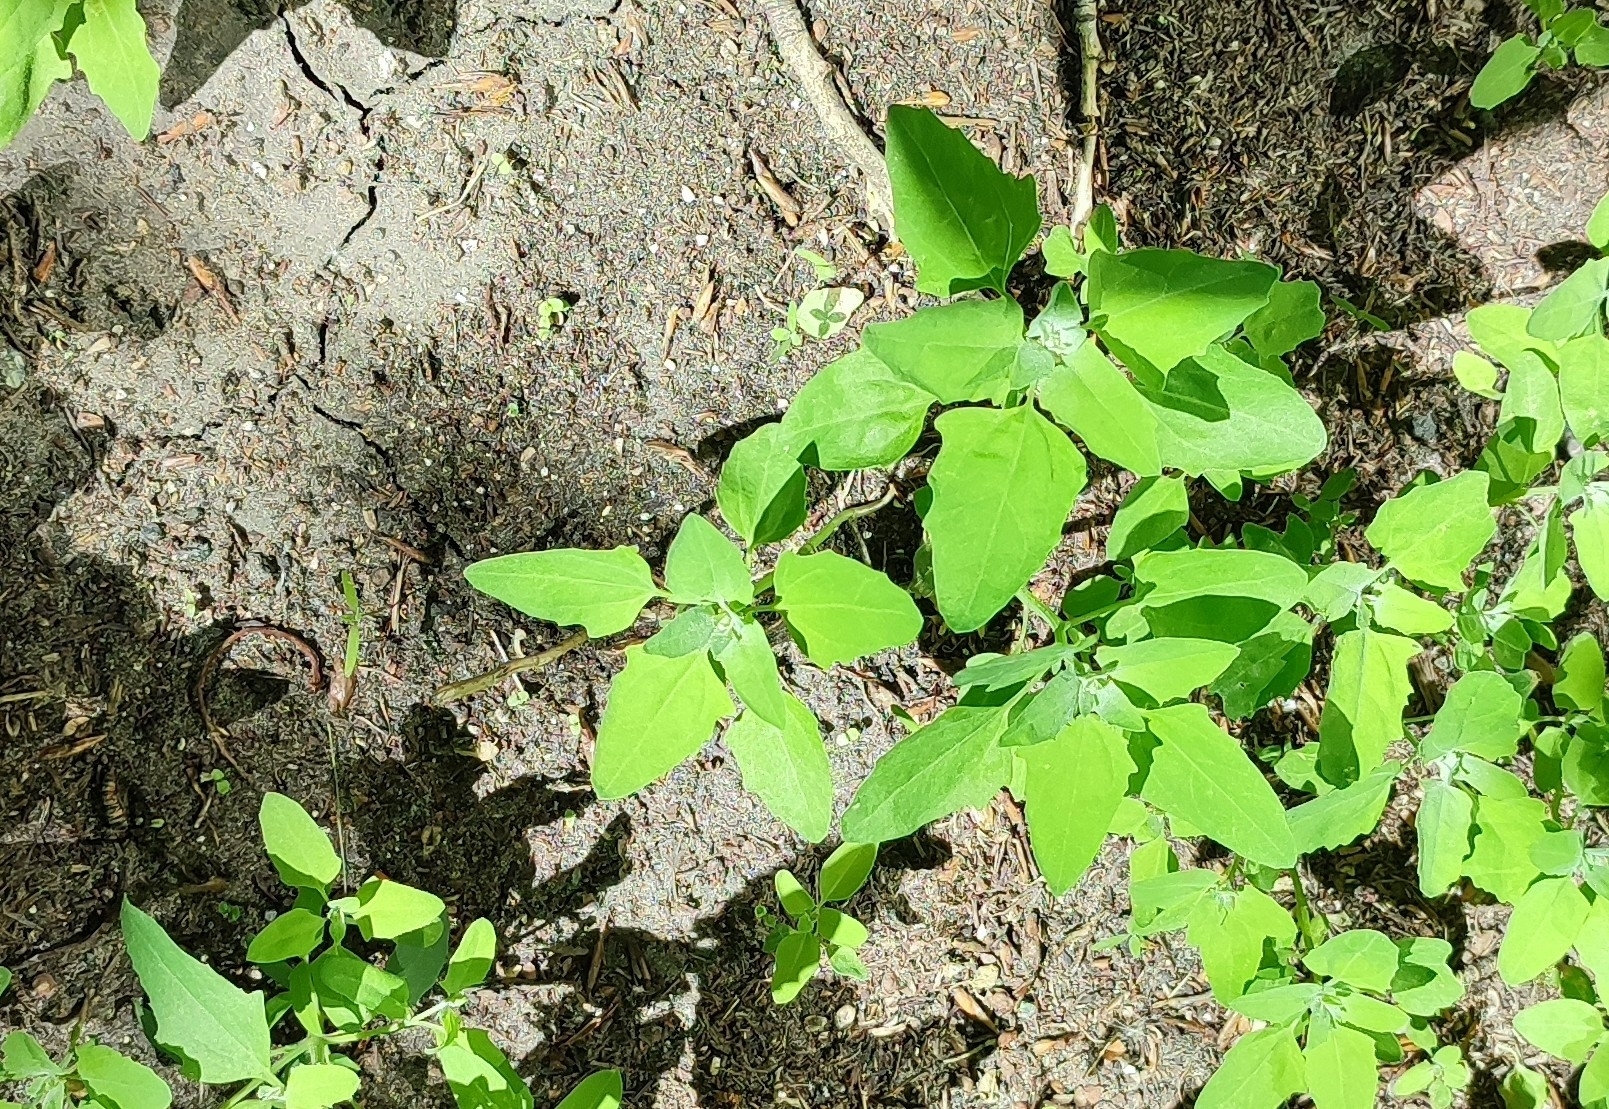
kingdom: Plantae
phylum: Tracheophyta
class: Magnoliopsida
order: Caryophyllales
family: Amaranthaceae
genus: Chenopodium
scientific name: Chenopodium album
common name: Fat-hen
